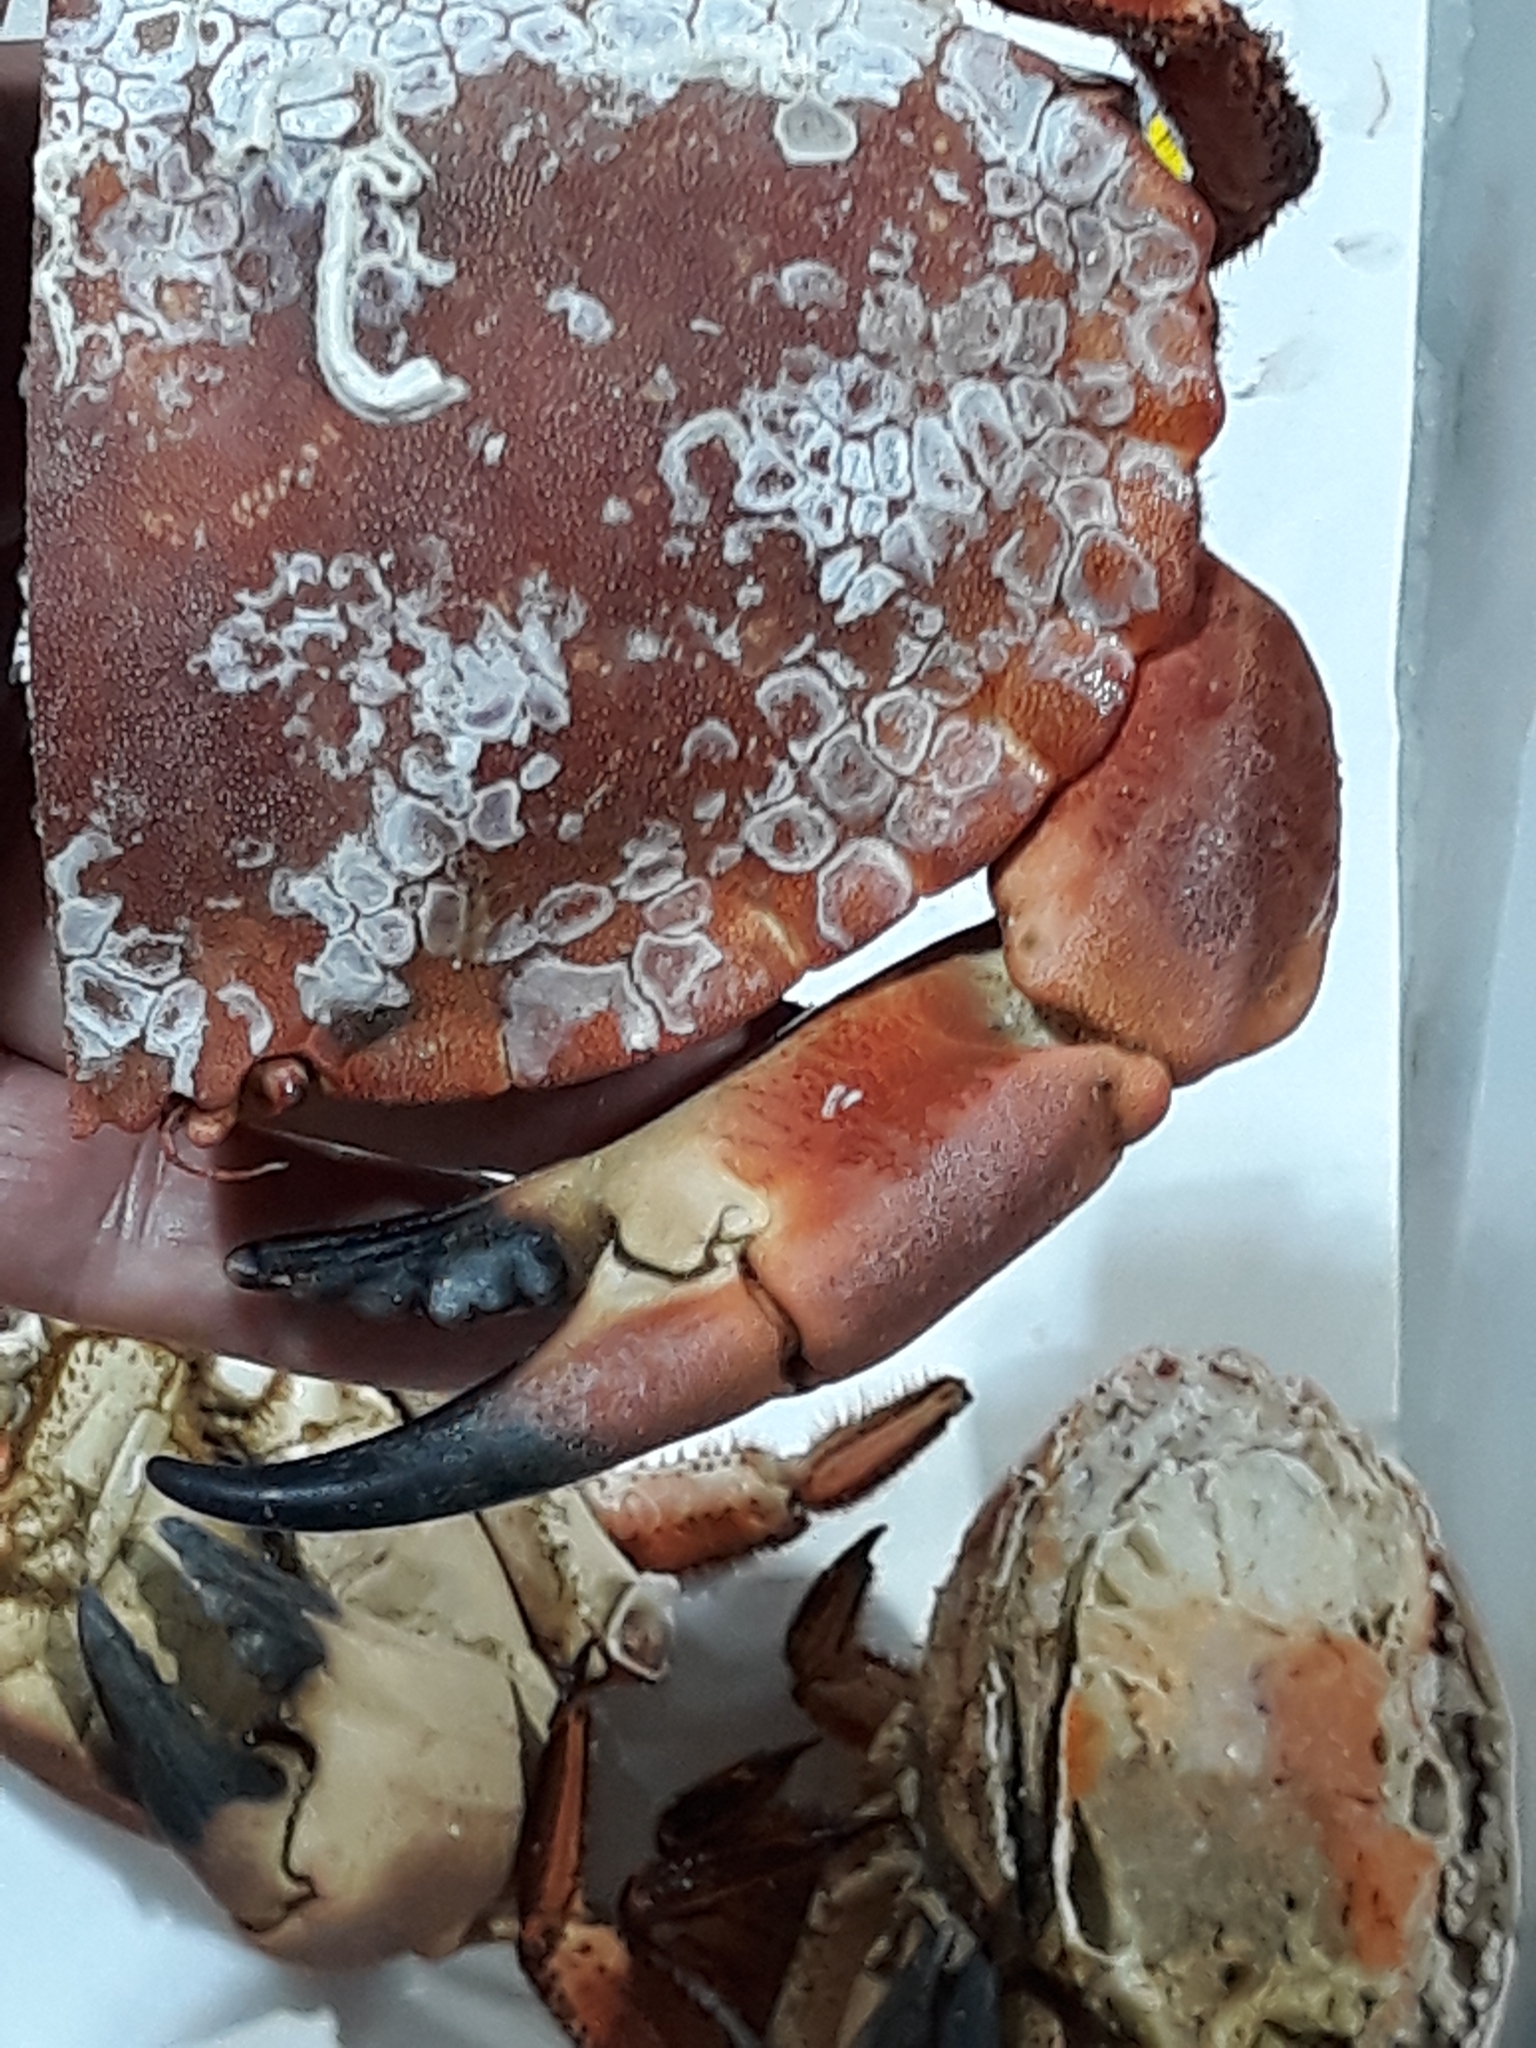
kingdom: Animalia
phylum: Arthropoda
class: Malacostraca
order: Decapoda
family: Cancridae
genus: Cancer
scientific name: Cancer pagurus
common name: Edible crab
